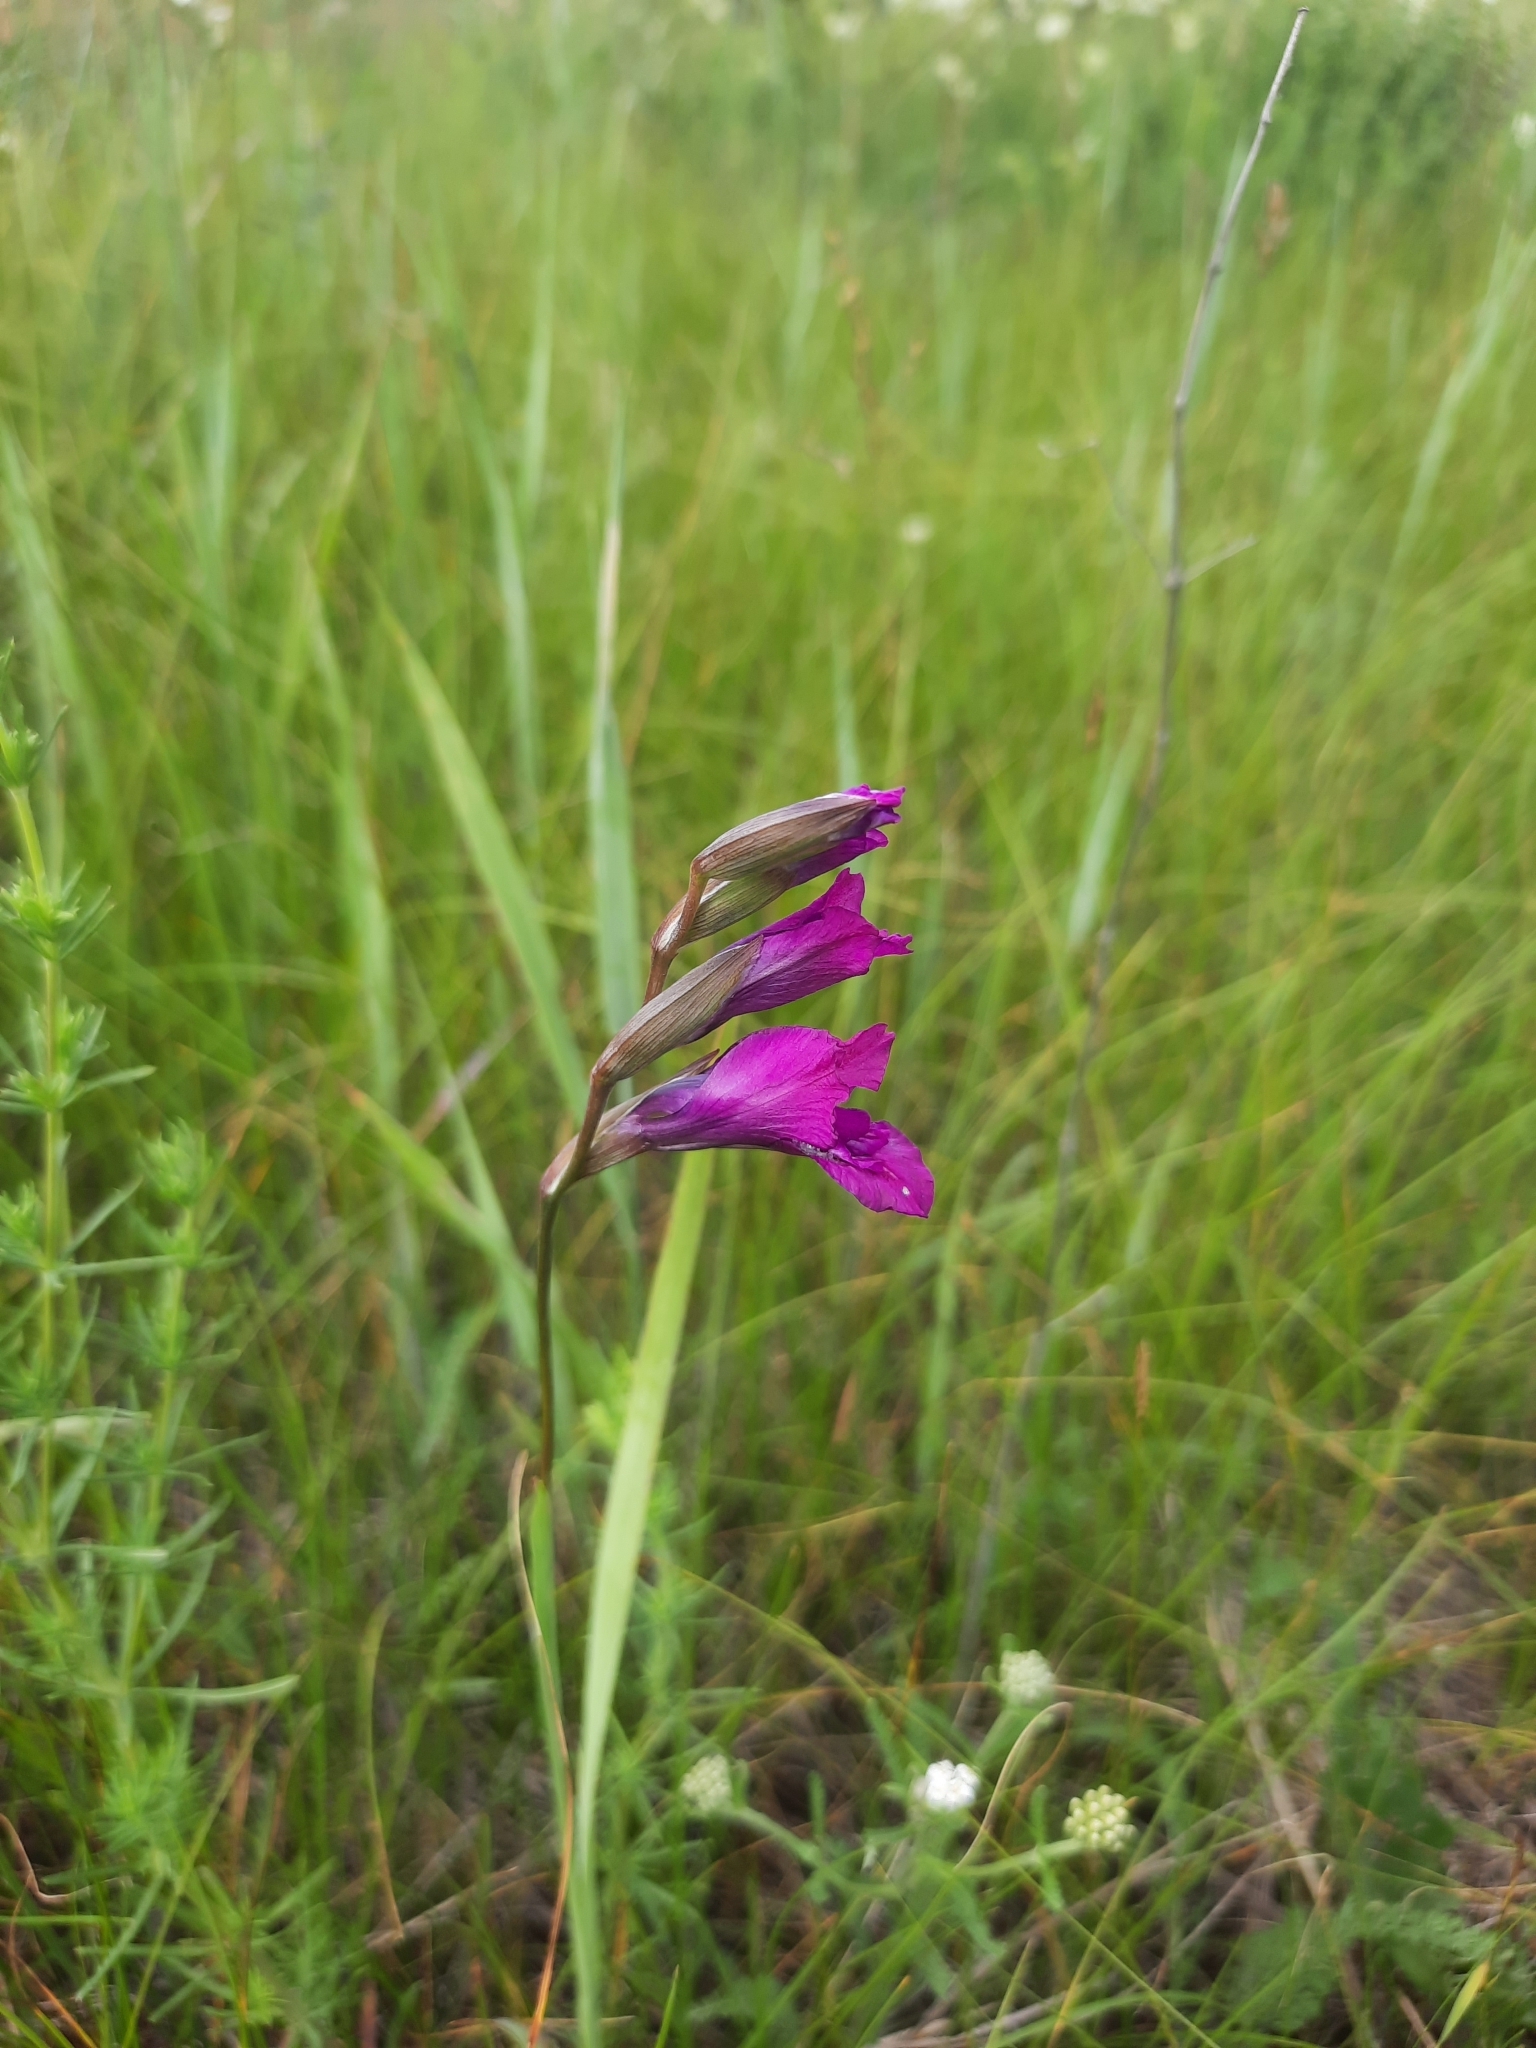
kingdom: Plantae
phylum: Tracheophyta
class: Liliopsida
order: Asparagales
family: Iridaceae
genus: Gladiolus
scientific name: Gladiolus tenuis
